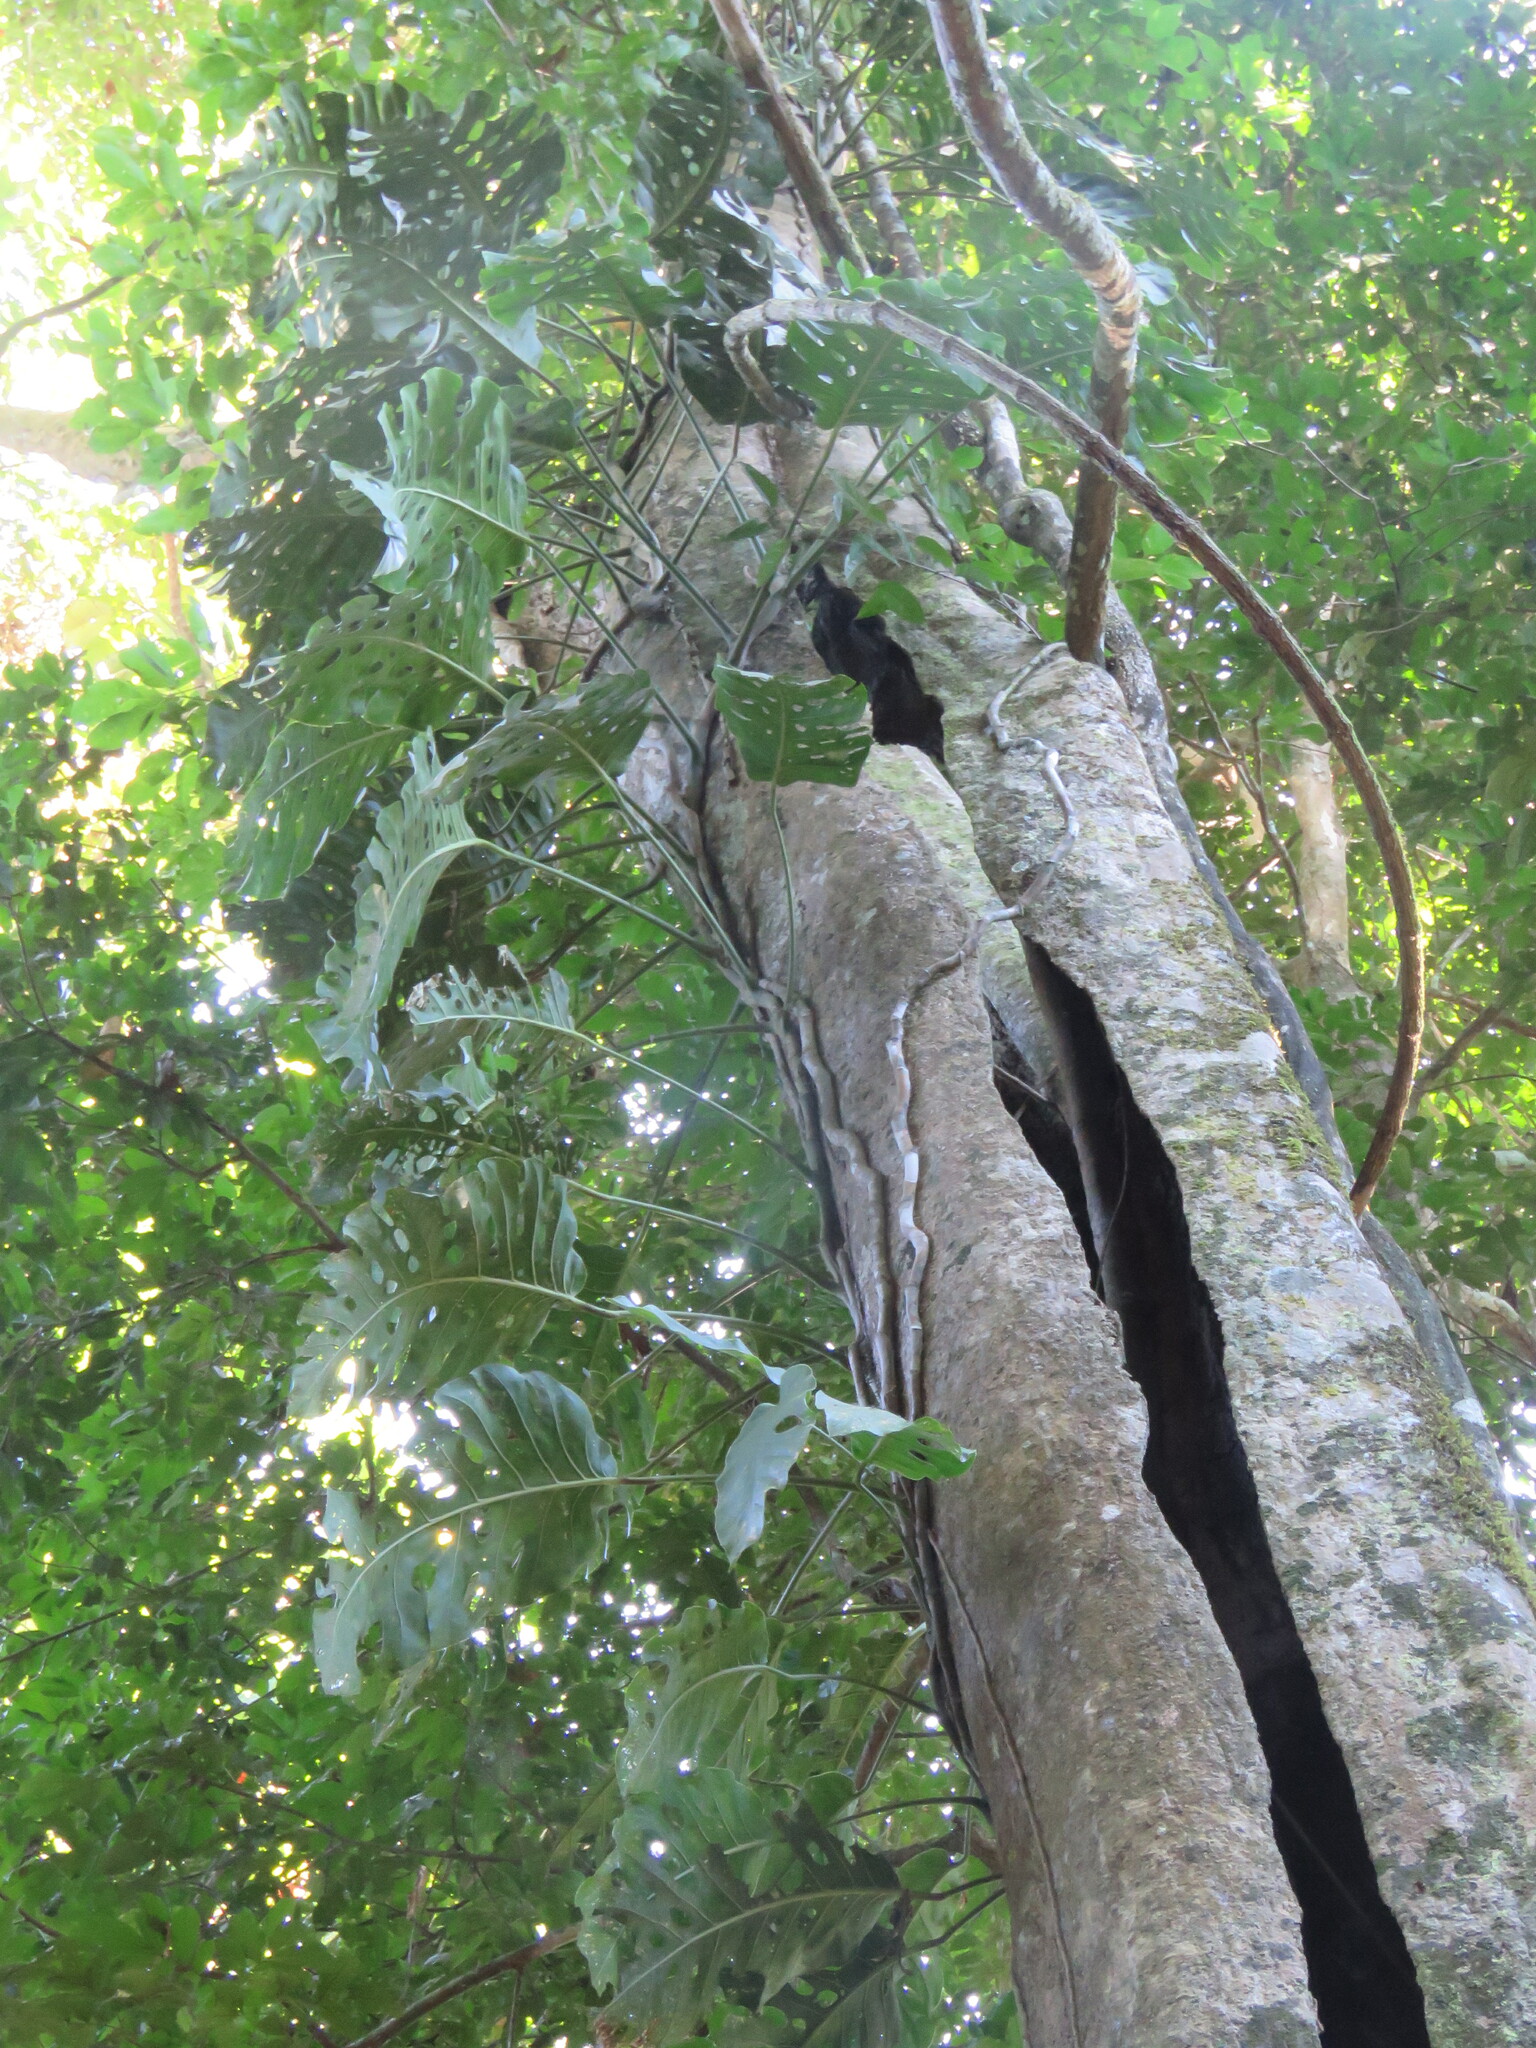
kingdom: Plantae
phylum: Tracheophyta
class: Liliopsida
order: Alismatales
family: Araceae
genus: Monstera
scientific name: Monstera dubia
